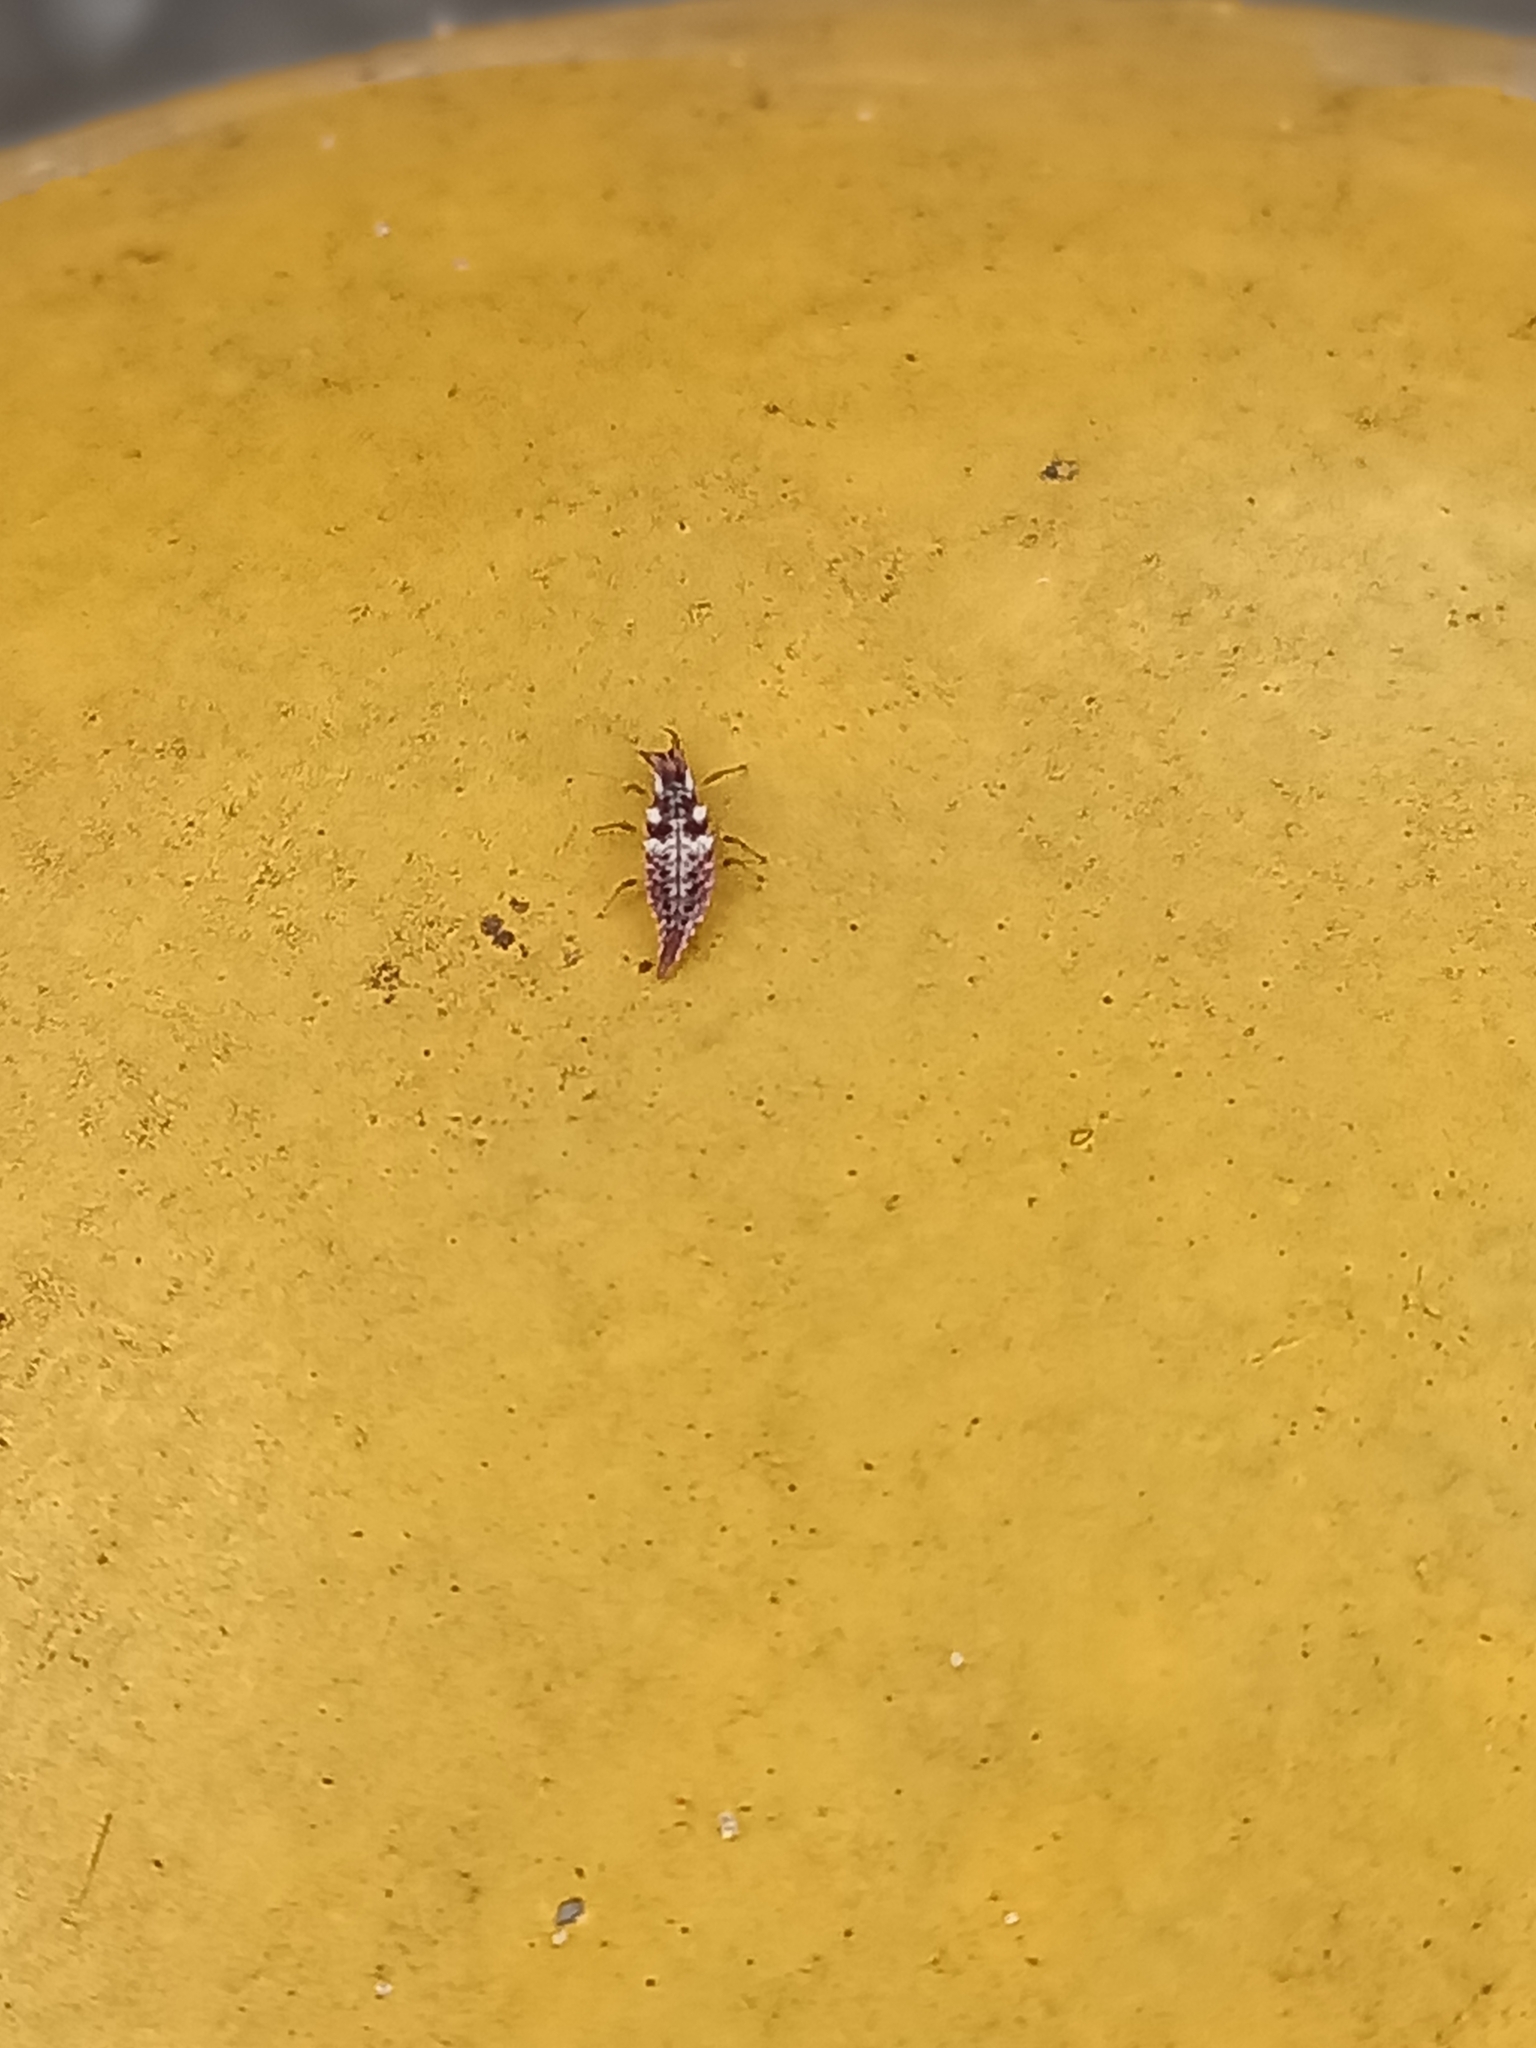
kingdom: Animalia
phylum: Arthropoda
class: Insecta
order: Neuroptera
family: Chrysopidae
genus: Chrysoperla
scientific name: Chrysoperla rufilabris
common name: Red-lipped green lacewing
